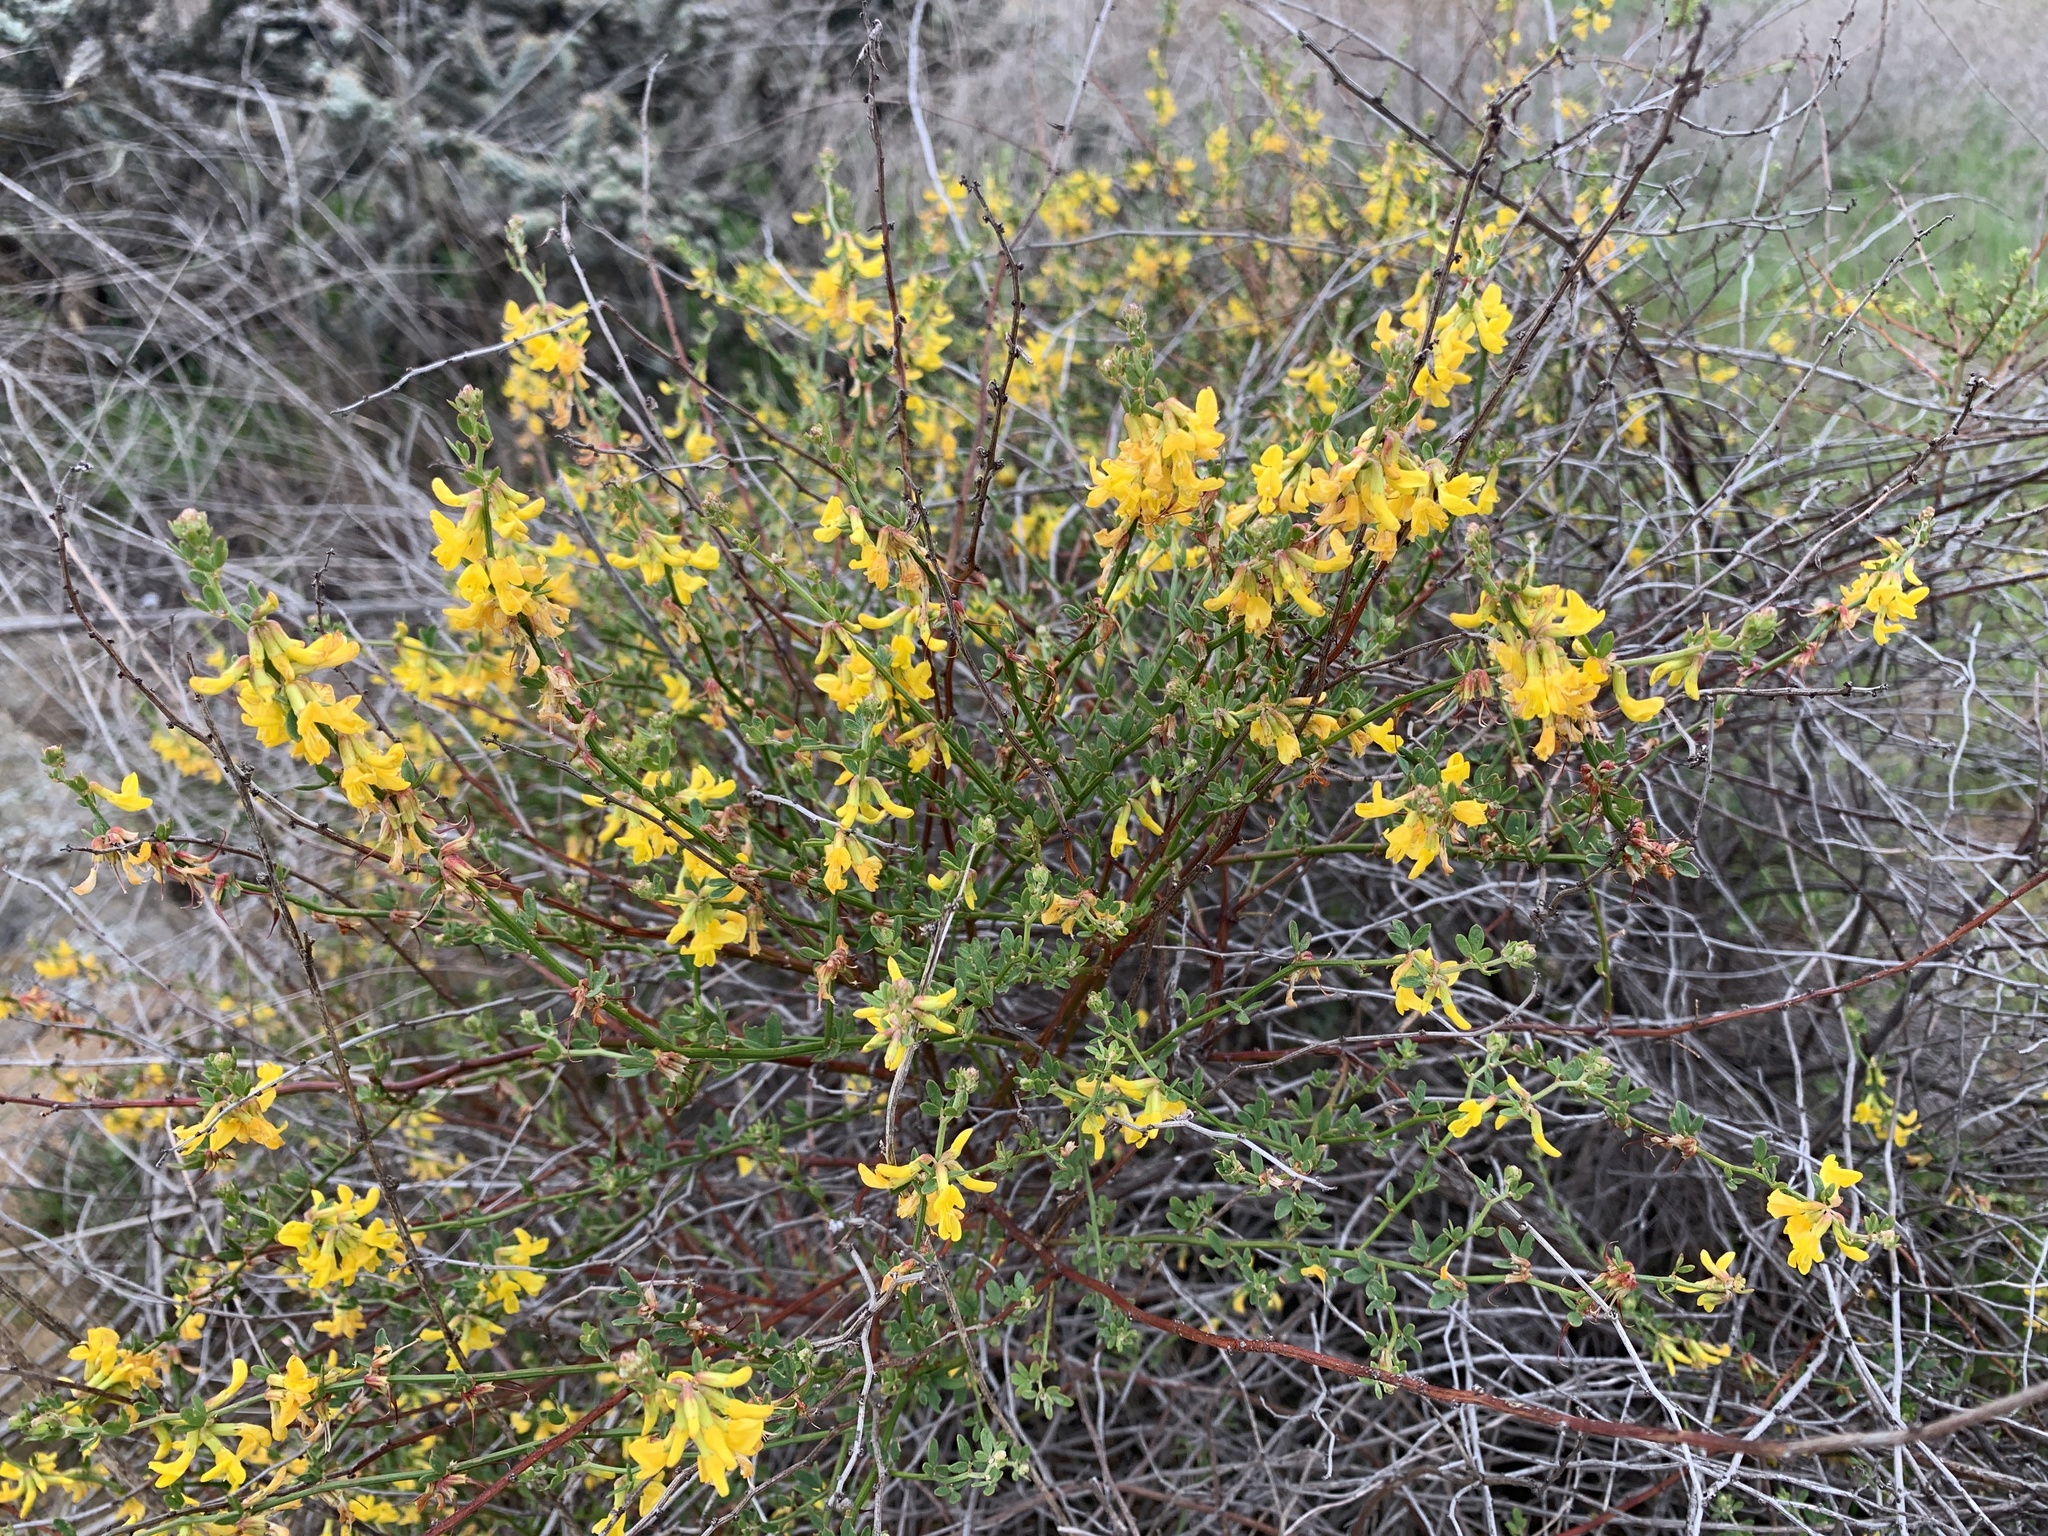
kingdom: Plantae
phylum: Tracheophyta
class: Magnoliopsida
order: Fabales
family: Fabaceae
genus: Acmispon
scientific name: Acmispon glaber
